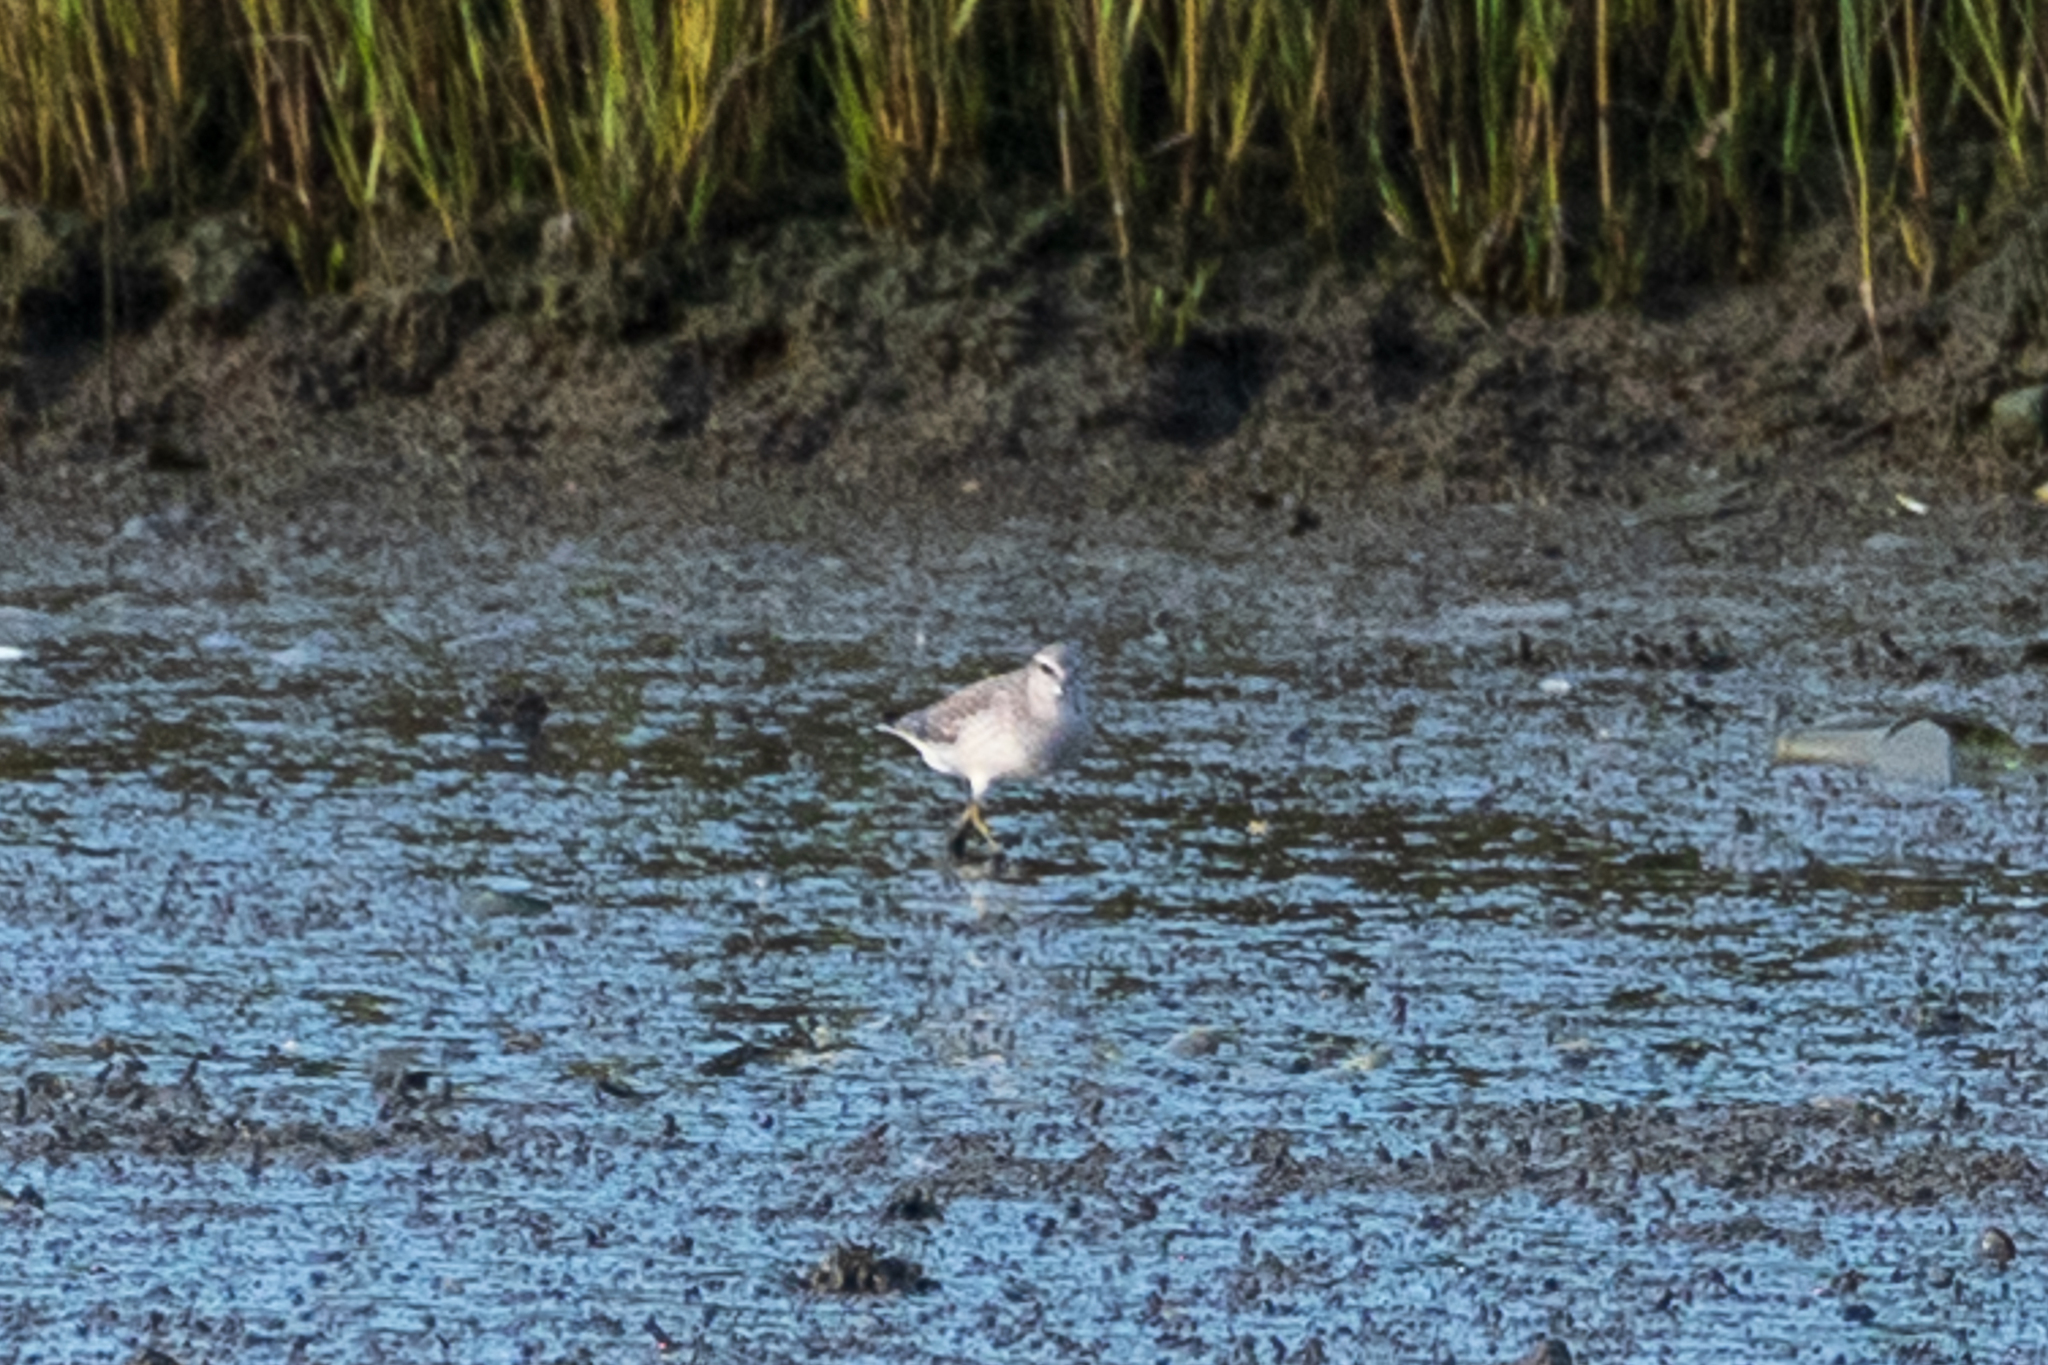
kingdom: Animalia
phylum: Chordata
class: Aves
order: Charadriiformes
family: Scolopacidae
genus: Calidris
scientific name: Calidris canutus
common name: Red knot
